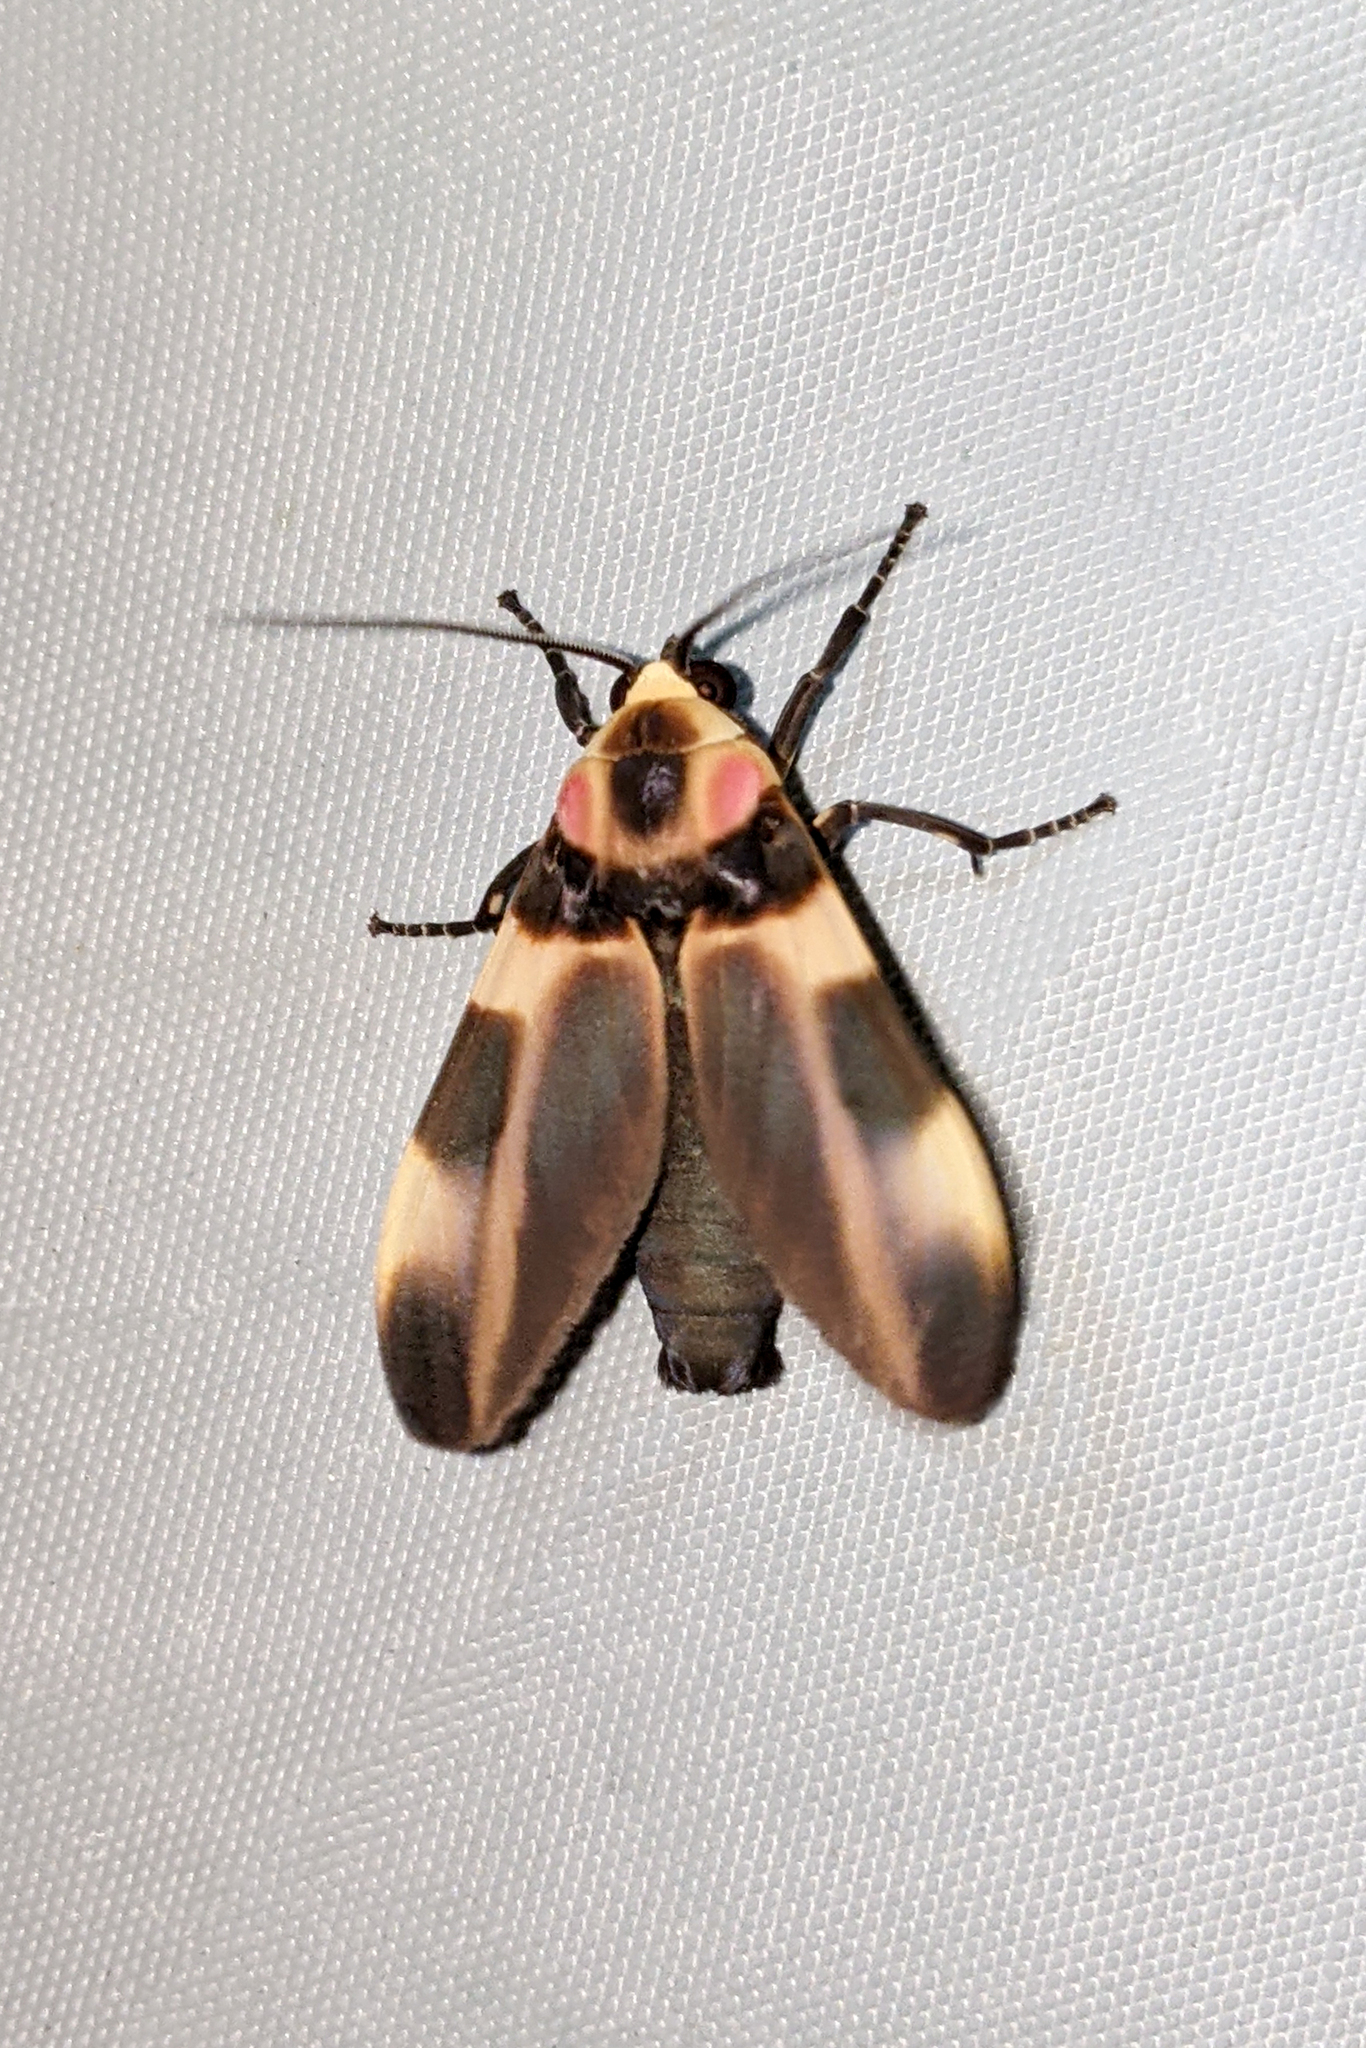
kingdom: Animalia
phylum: Arthropoda
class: Insecta
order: Lepidoptera
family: Erebidae
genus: Cratoplastis
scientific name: Cratoplastis rectiradia
